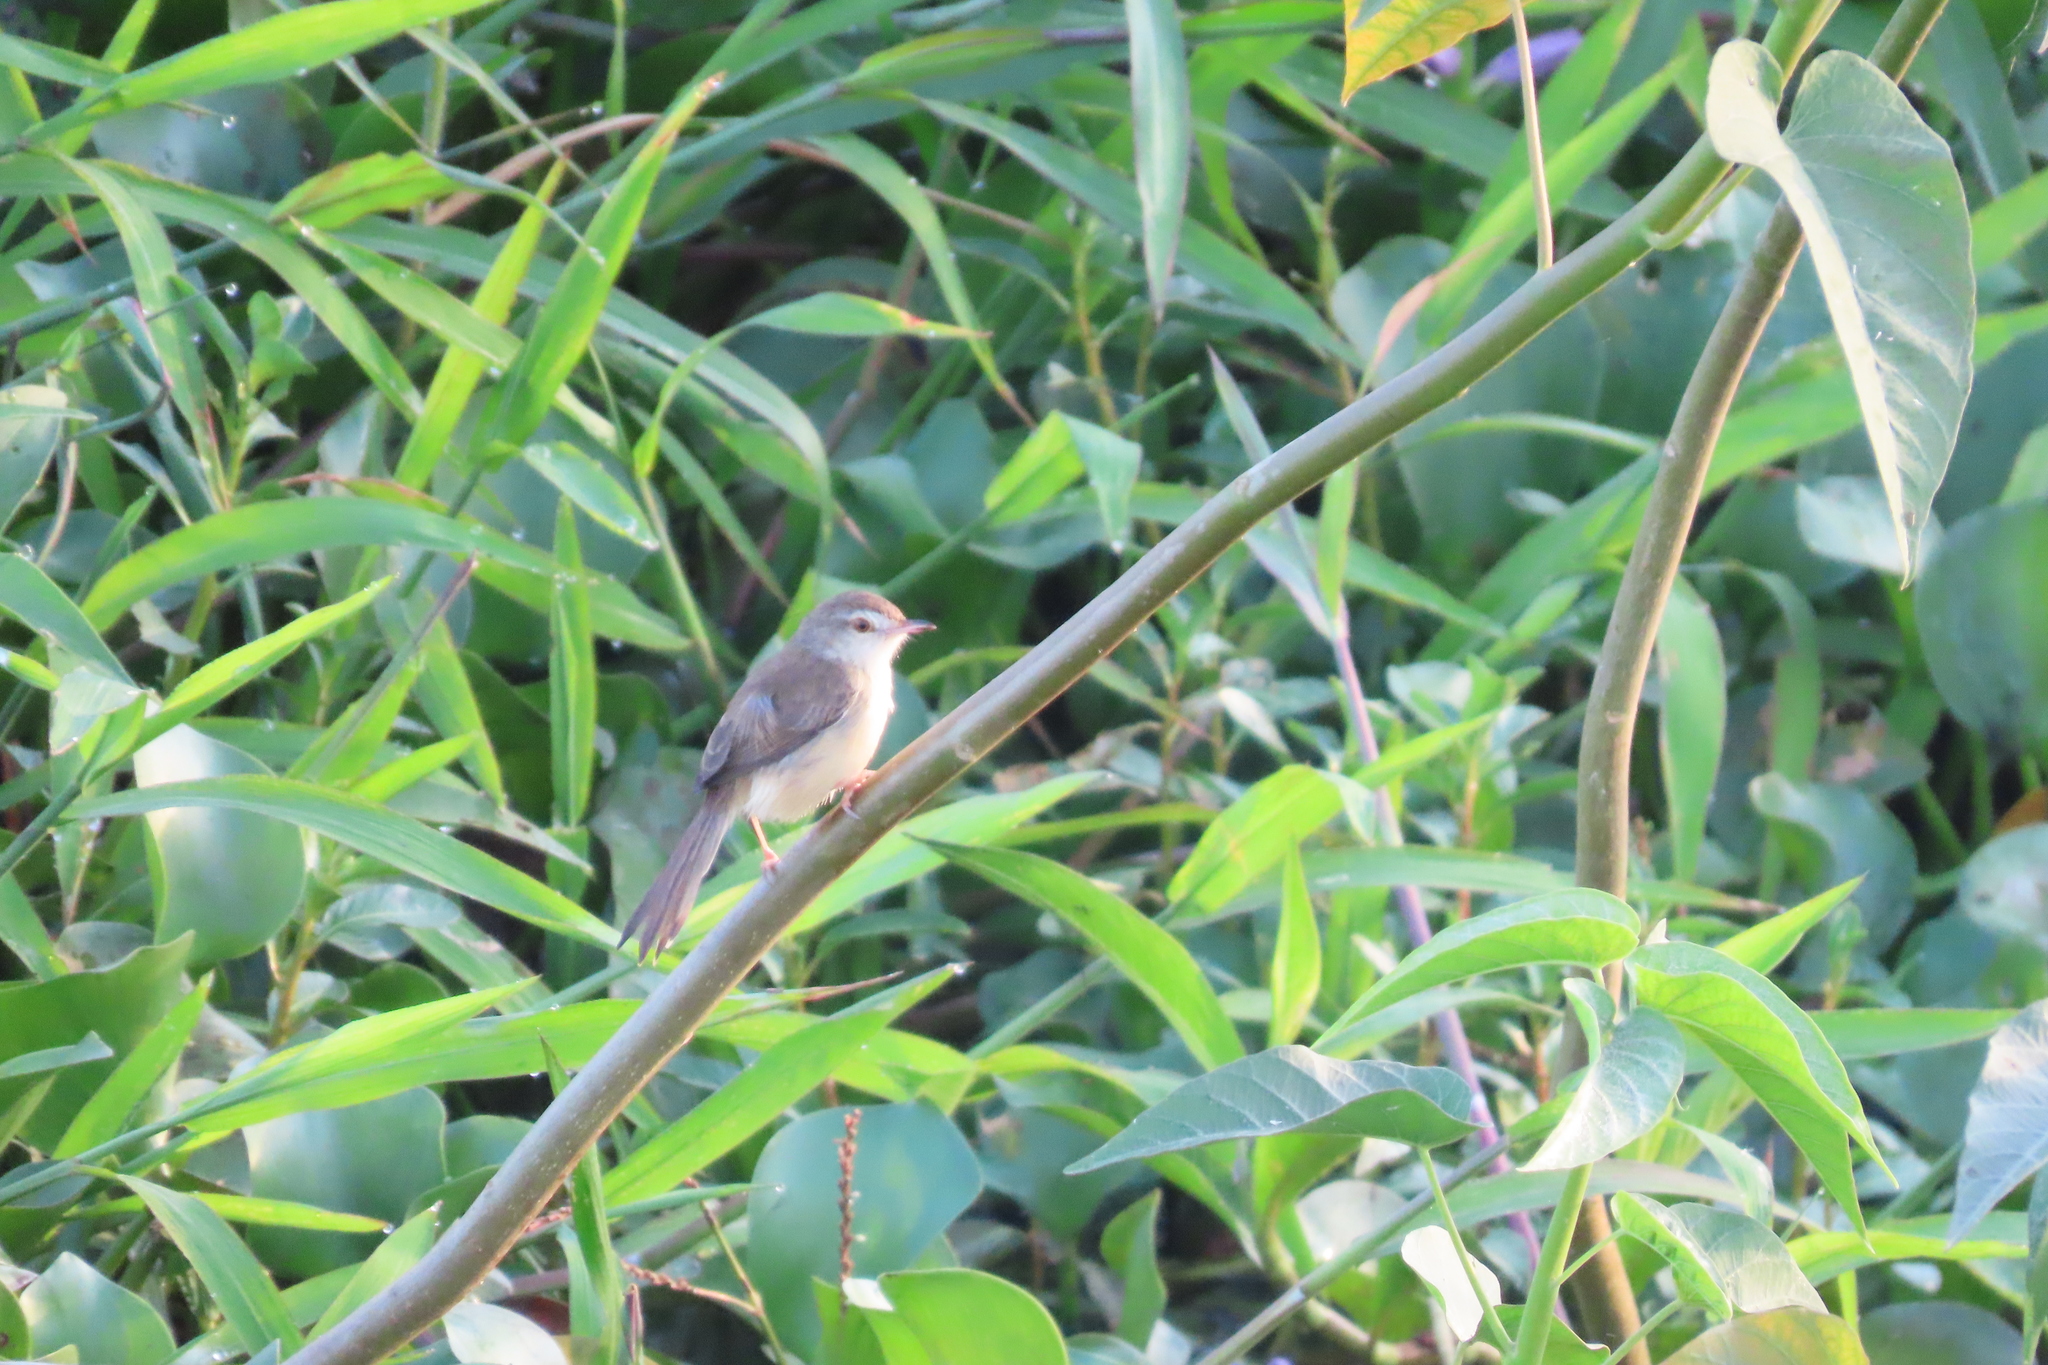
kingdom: Animalia
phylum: Chordata
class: Aves
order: Passeriformes
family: Cisticolidae
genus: Prinia
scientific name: Prinia inornata
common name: Plain prinia
